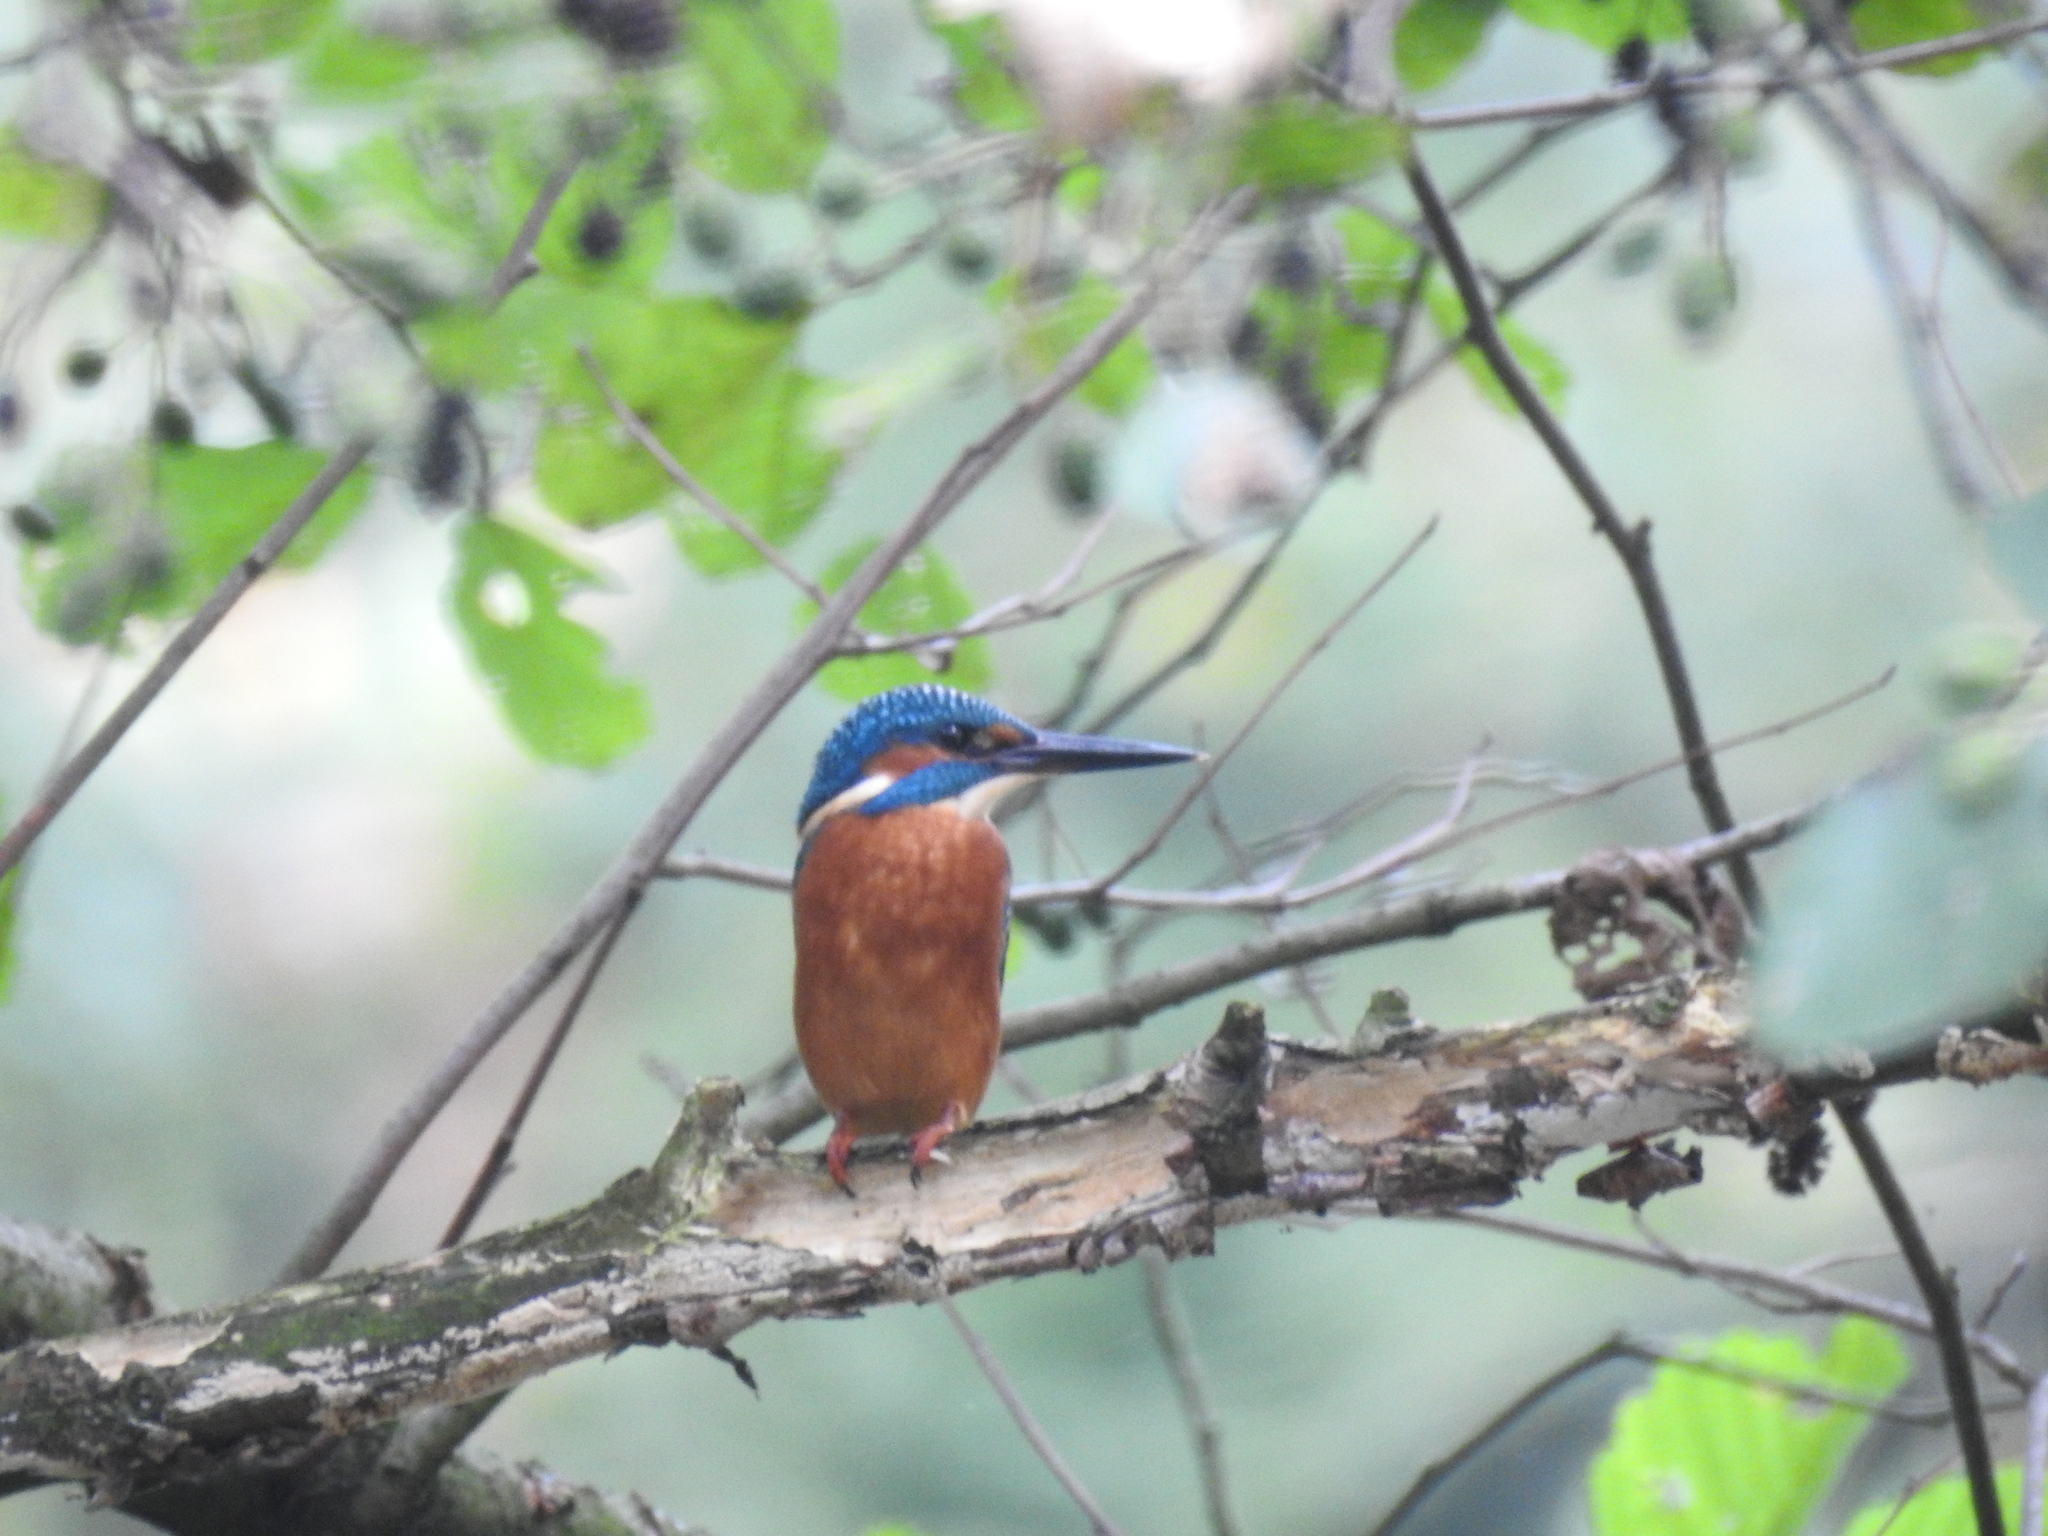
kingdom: Animalia
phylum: Chordata
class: Aves
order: Coraciiformes
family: Alcedinidae
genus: Alcedo
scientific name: Alcedo atthis
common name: Common kingfisher
